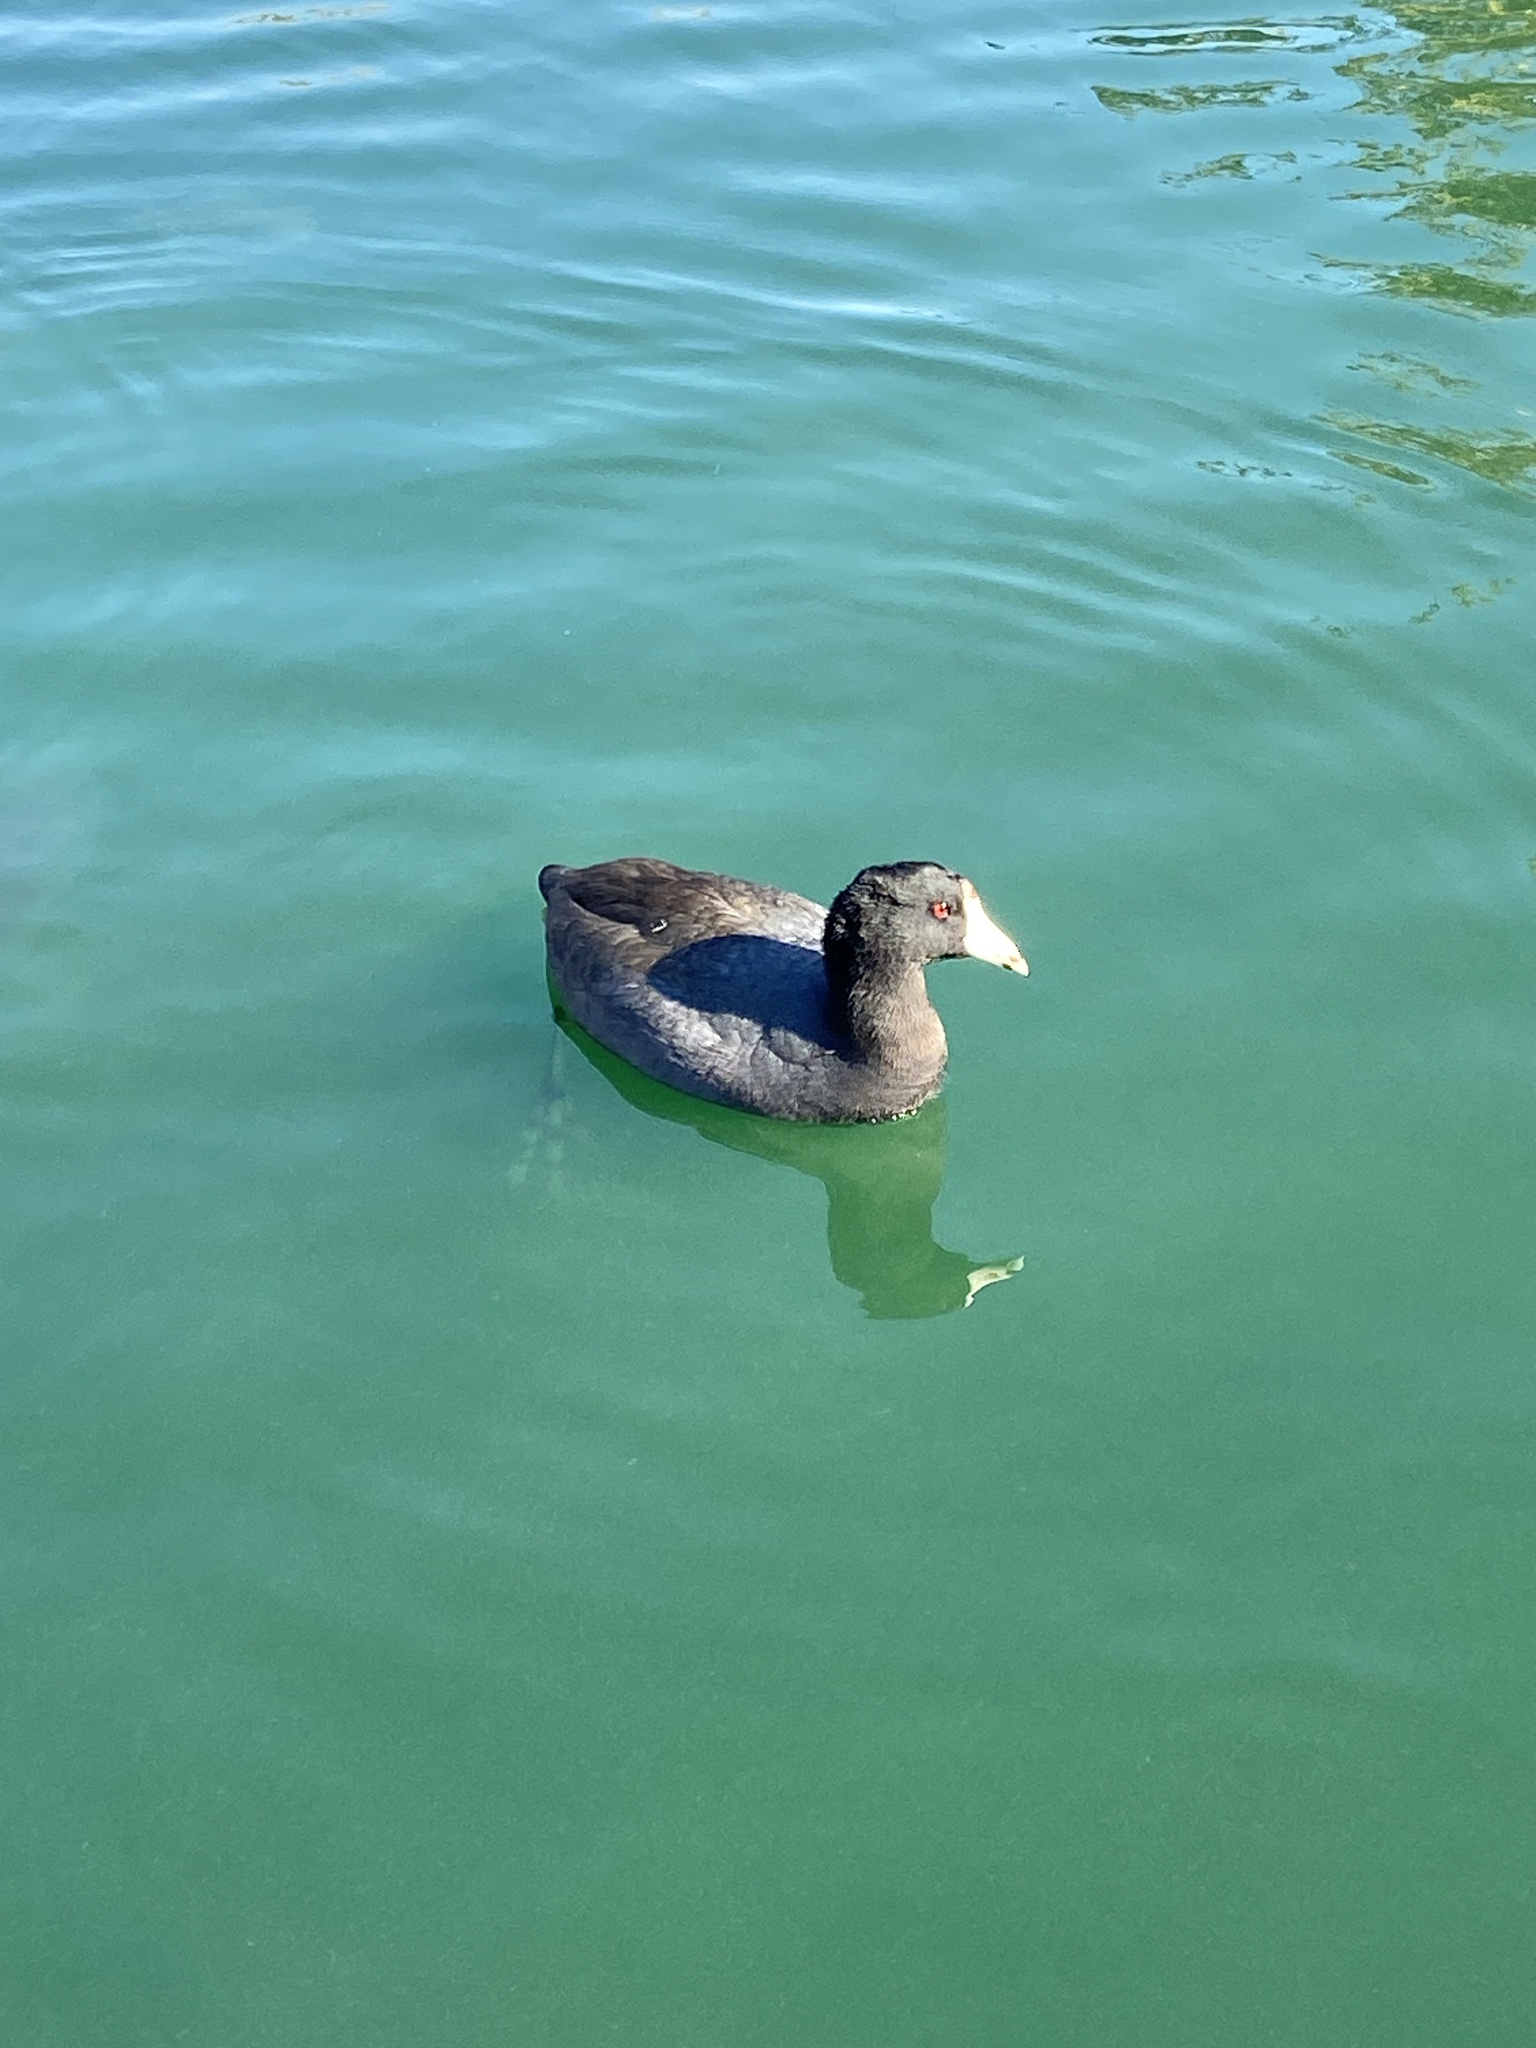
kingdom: Animalia
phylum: Chordata
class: Aves
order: Gruiformes
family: Rallidae
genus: Fulica
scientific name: Fulica americana
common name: American coot
